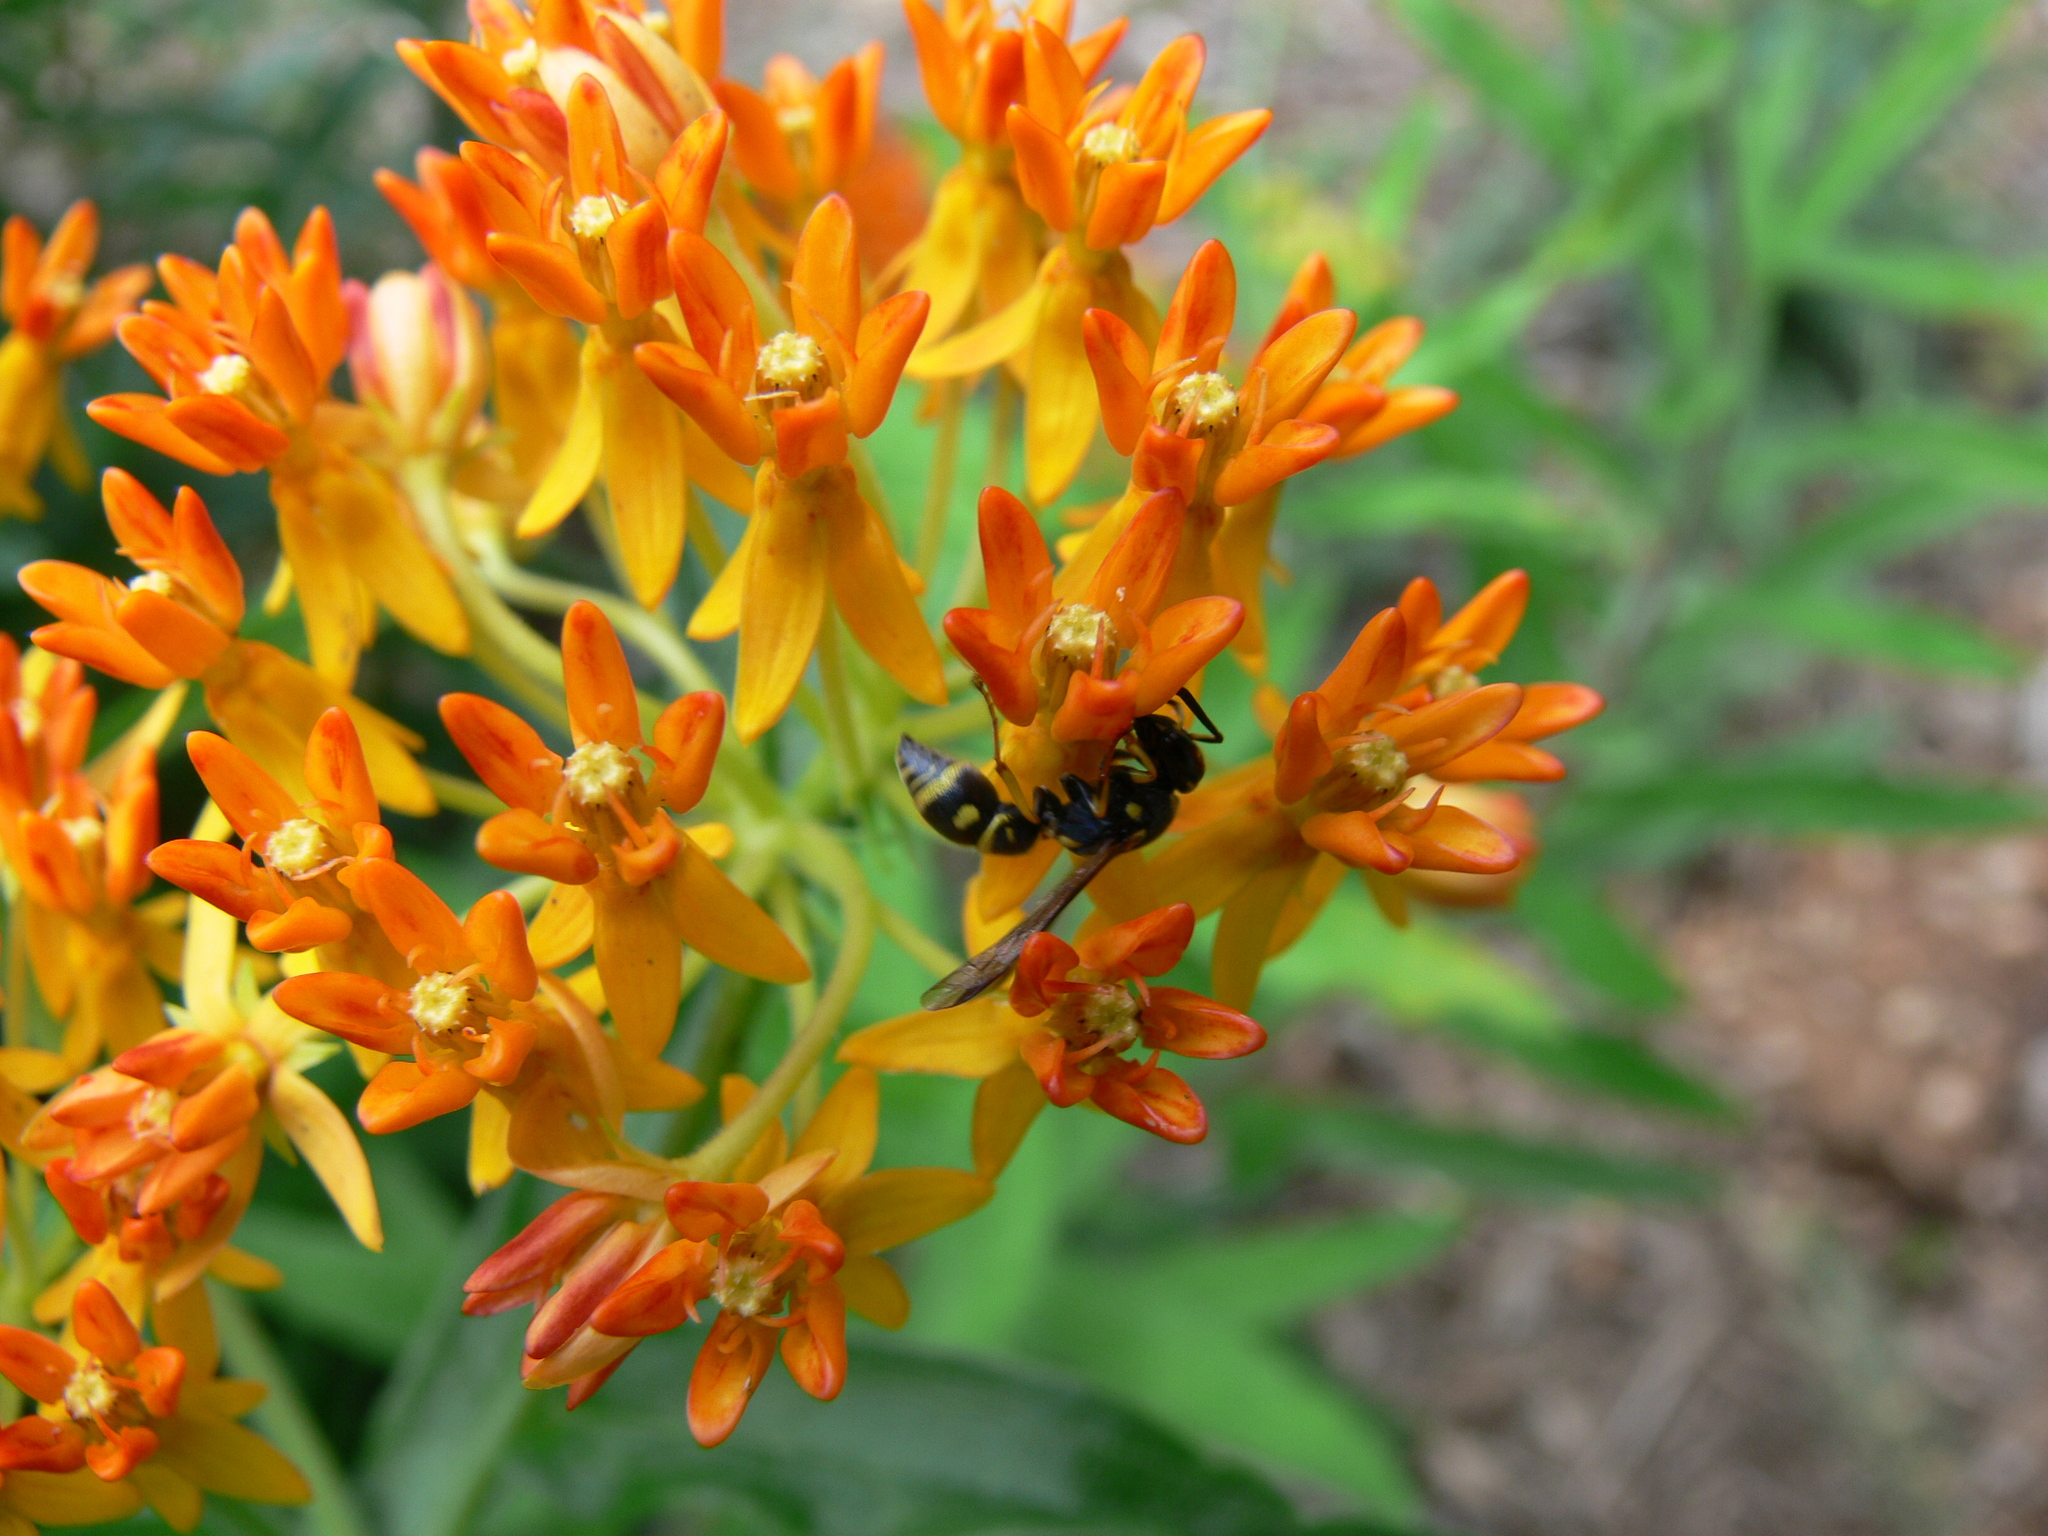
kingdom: Animalia
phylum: Arthropoda
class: Insecta
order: Hymenoptera
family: Eumenidae
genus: Parancistrocerus
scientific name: Parancistrocerus
